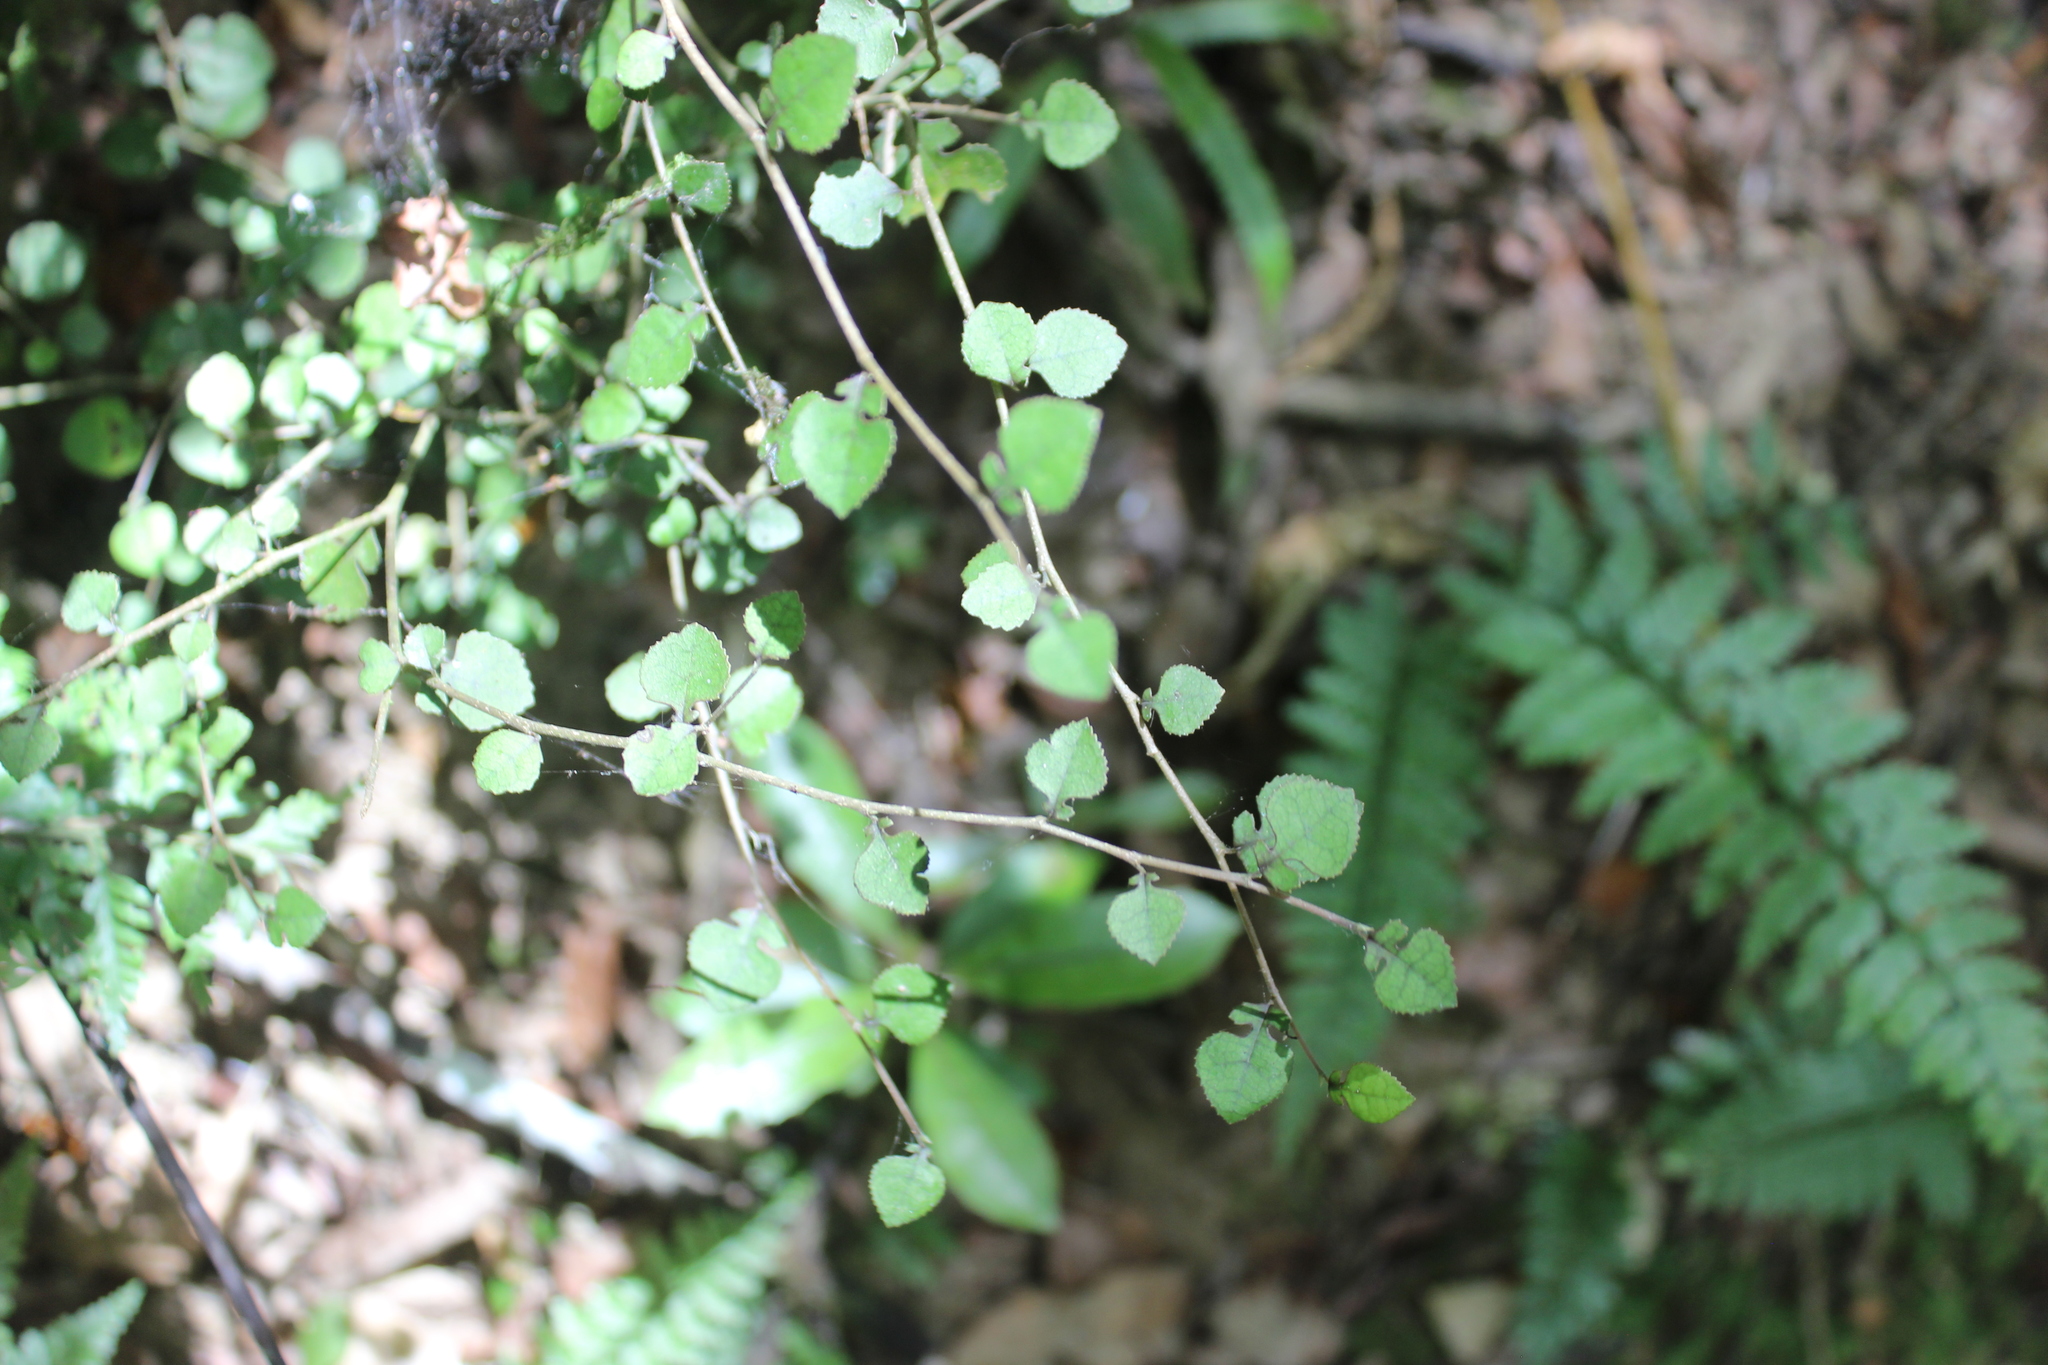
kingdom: Plantae
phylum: Tracheophyta
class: Magnoliopsida
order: Rosales
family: Moraceae
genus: Paratrophis
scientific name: Paratrophis microphylla
